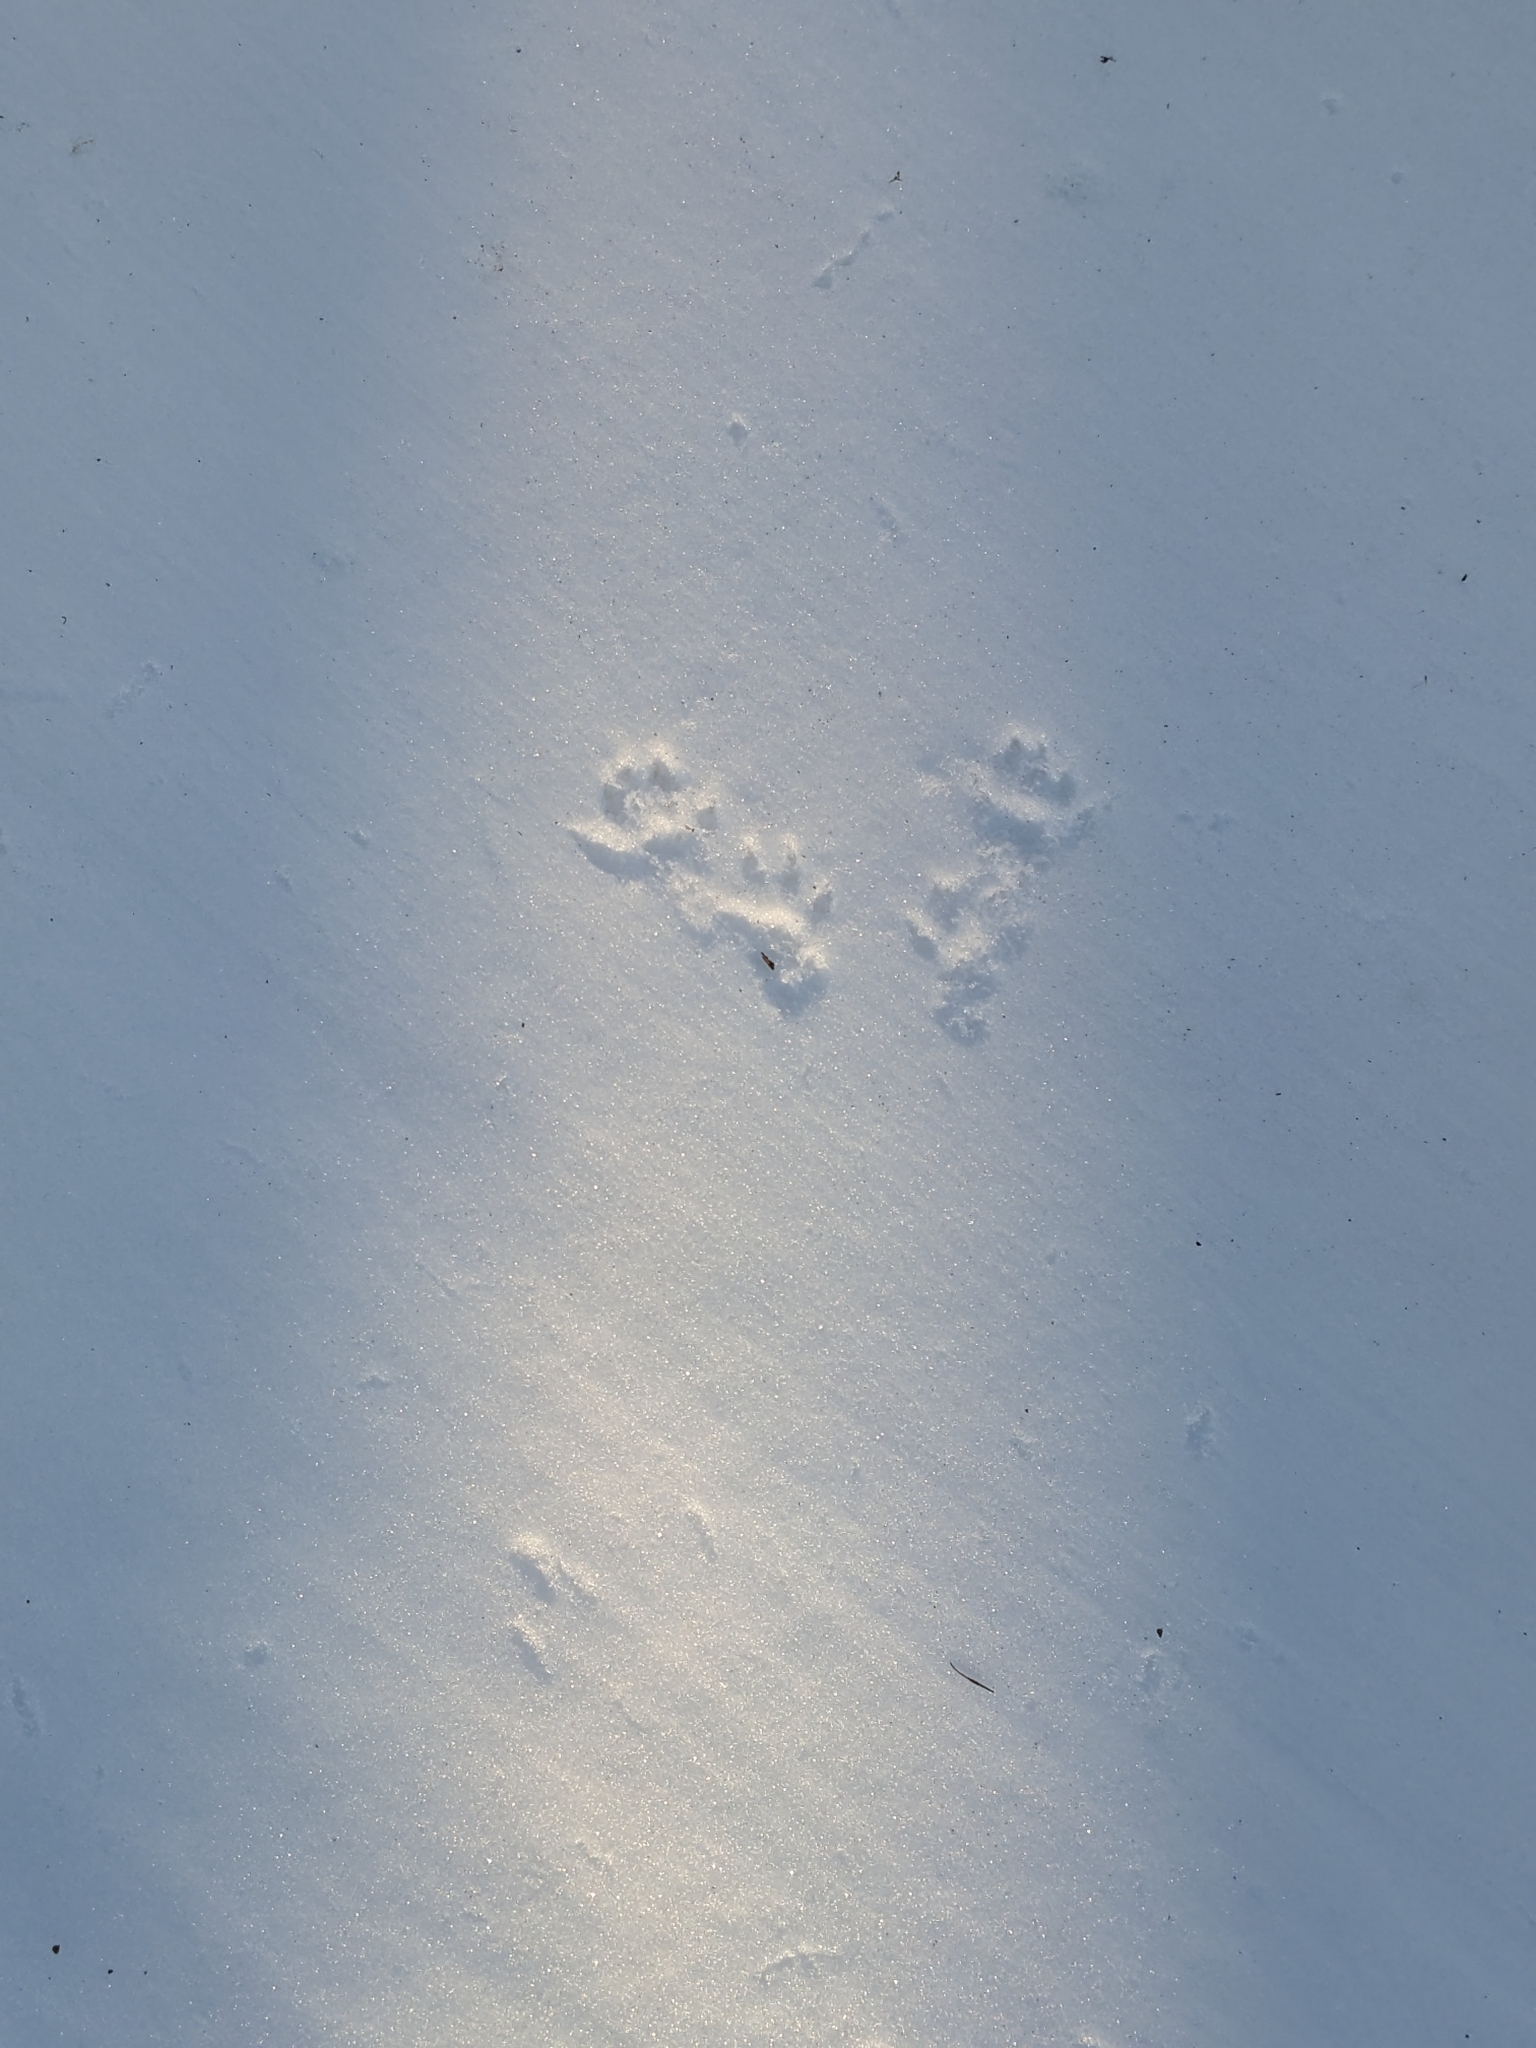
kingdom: Animalia
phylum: Chordata
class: Mammalia
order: Rodentia
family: Sciuridae
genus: Sciurus
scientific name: Sciurus carolinensis
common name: Eastern gray squirrel
